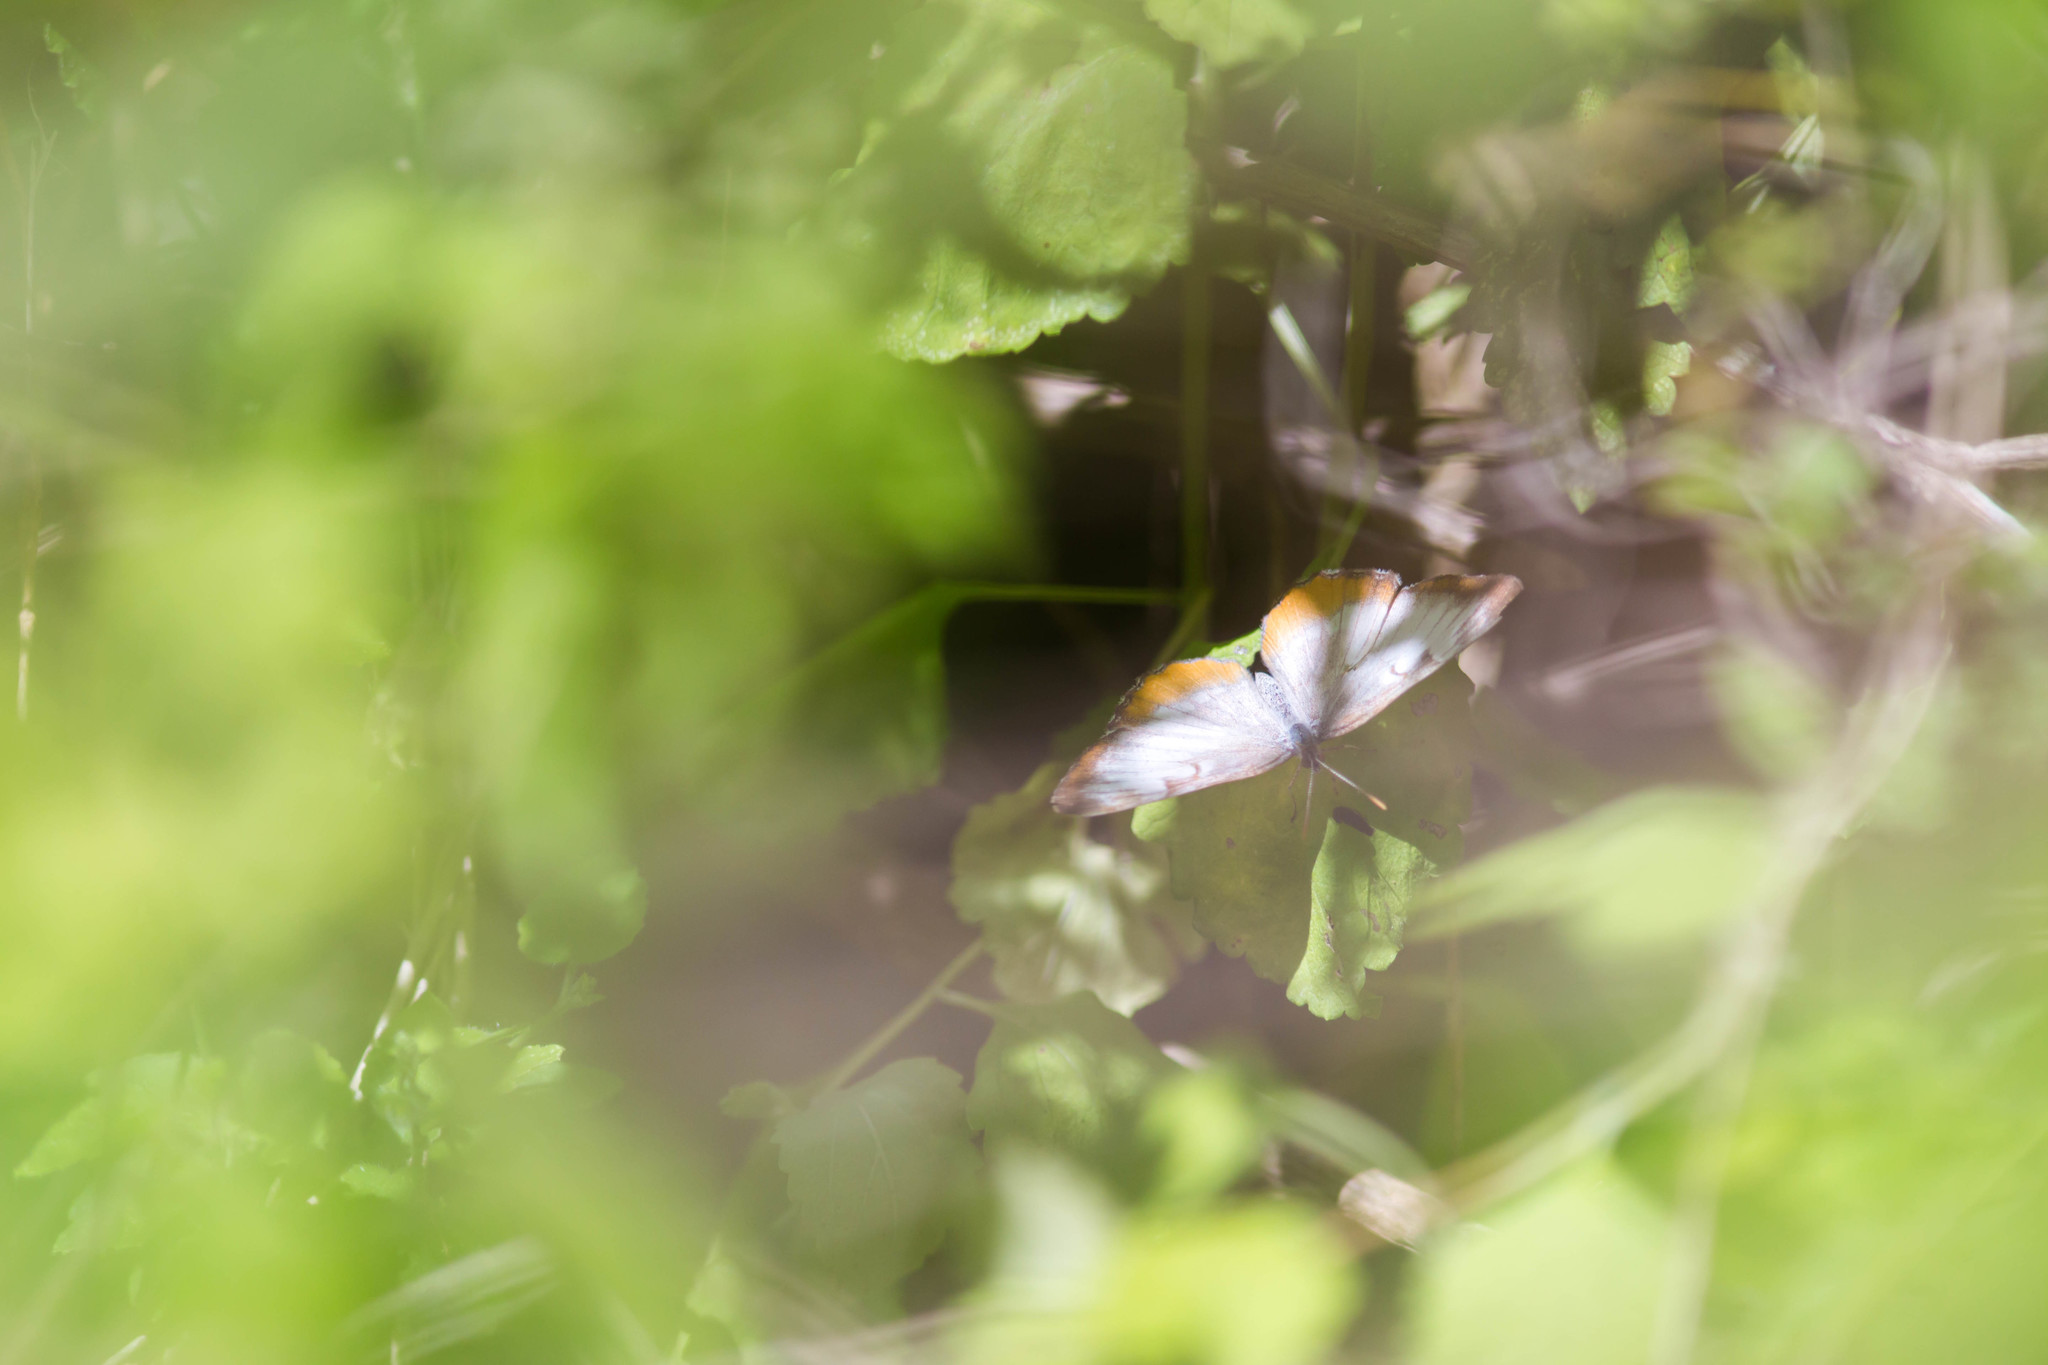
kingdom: Animalia
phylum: Arthropoda
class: Insecta
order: Lepidoptera
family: Nymphalidae
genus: Mestra
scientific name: Mestra amymone
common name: Common mestra
